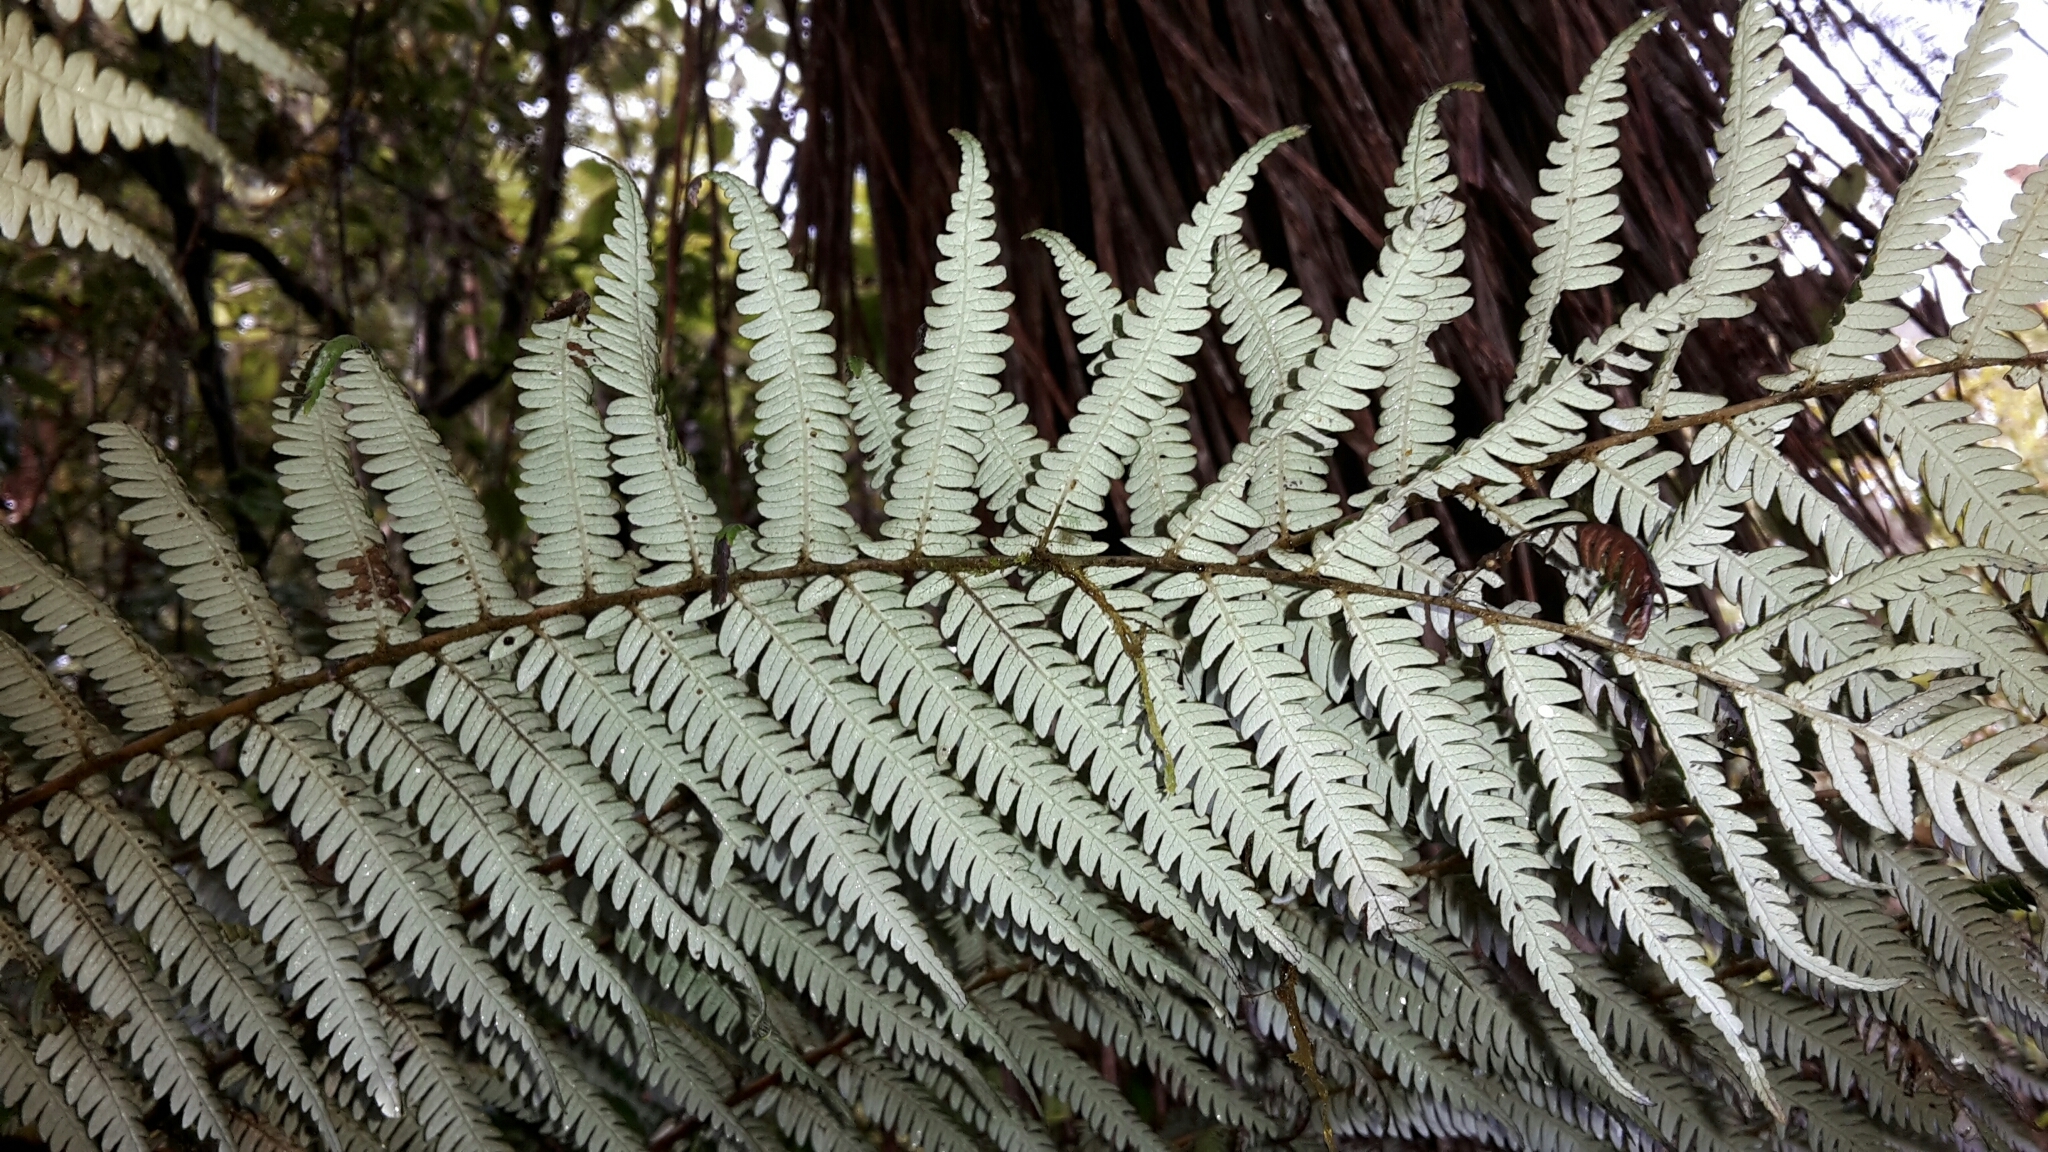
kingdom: Plantae
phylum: Tracheophyta
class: Polypodiopsida
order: Cyatheales
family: Cyatheaceae
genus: Alsophila
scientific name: Alsophila dealbata
